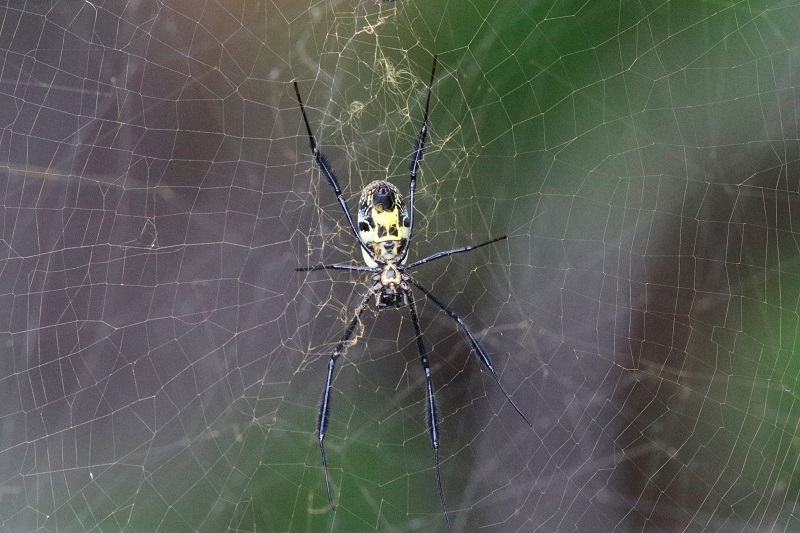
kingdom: Animalia
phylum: Arthropoda
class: Arachnida
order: Araneae
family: Araneidae
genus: Trichonephila
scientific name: Trichonephila fenestrata
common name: Hairy golden orb weaver
